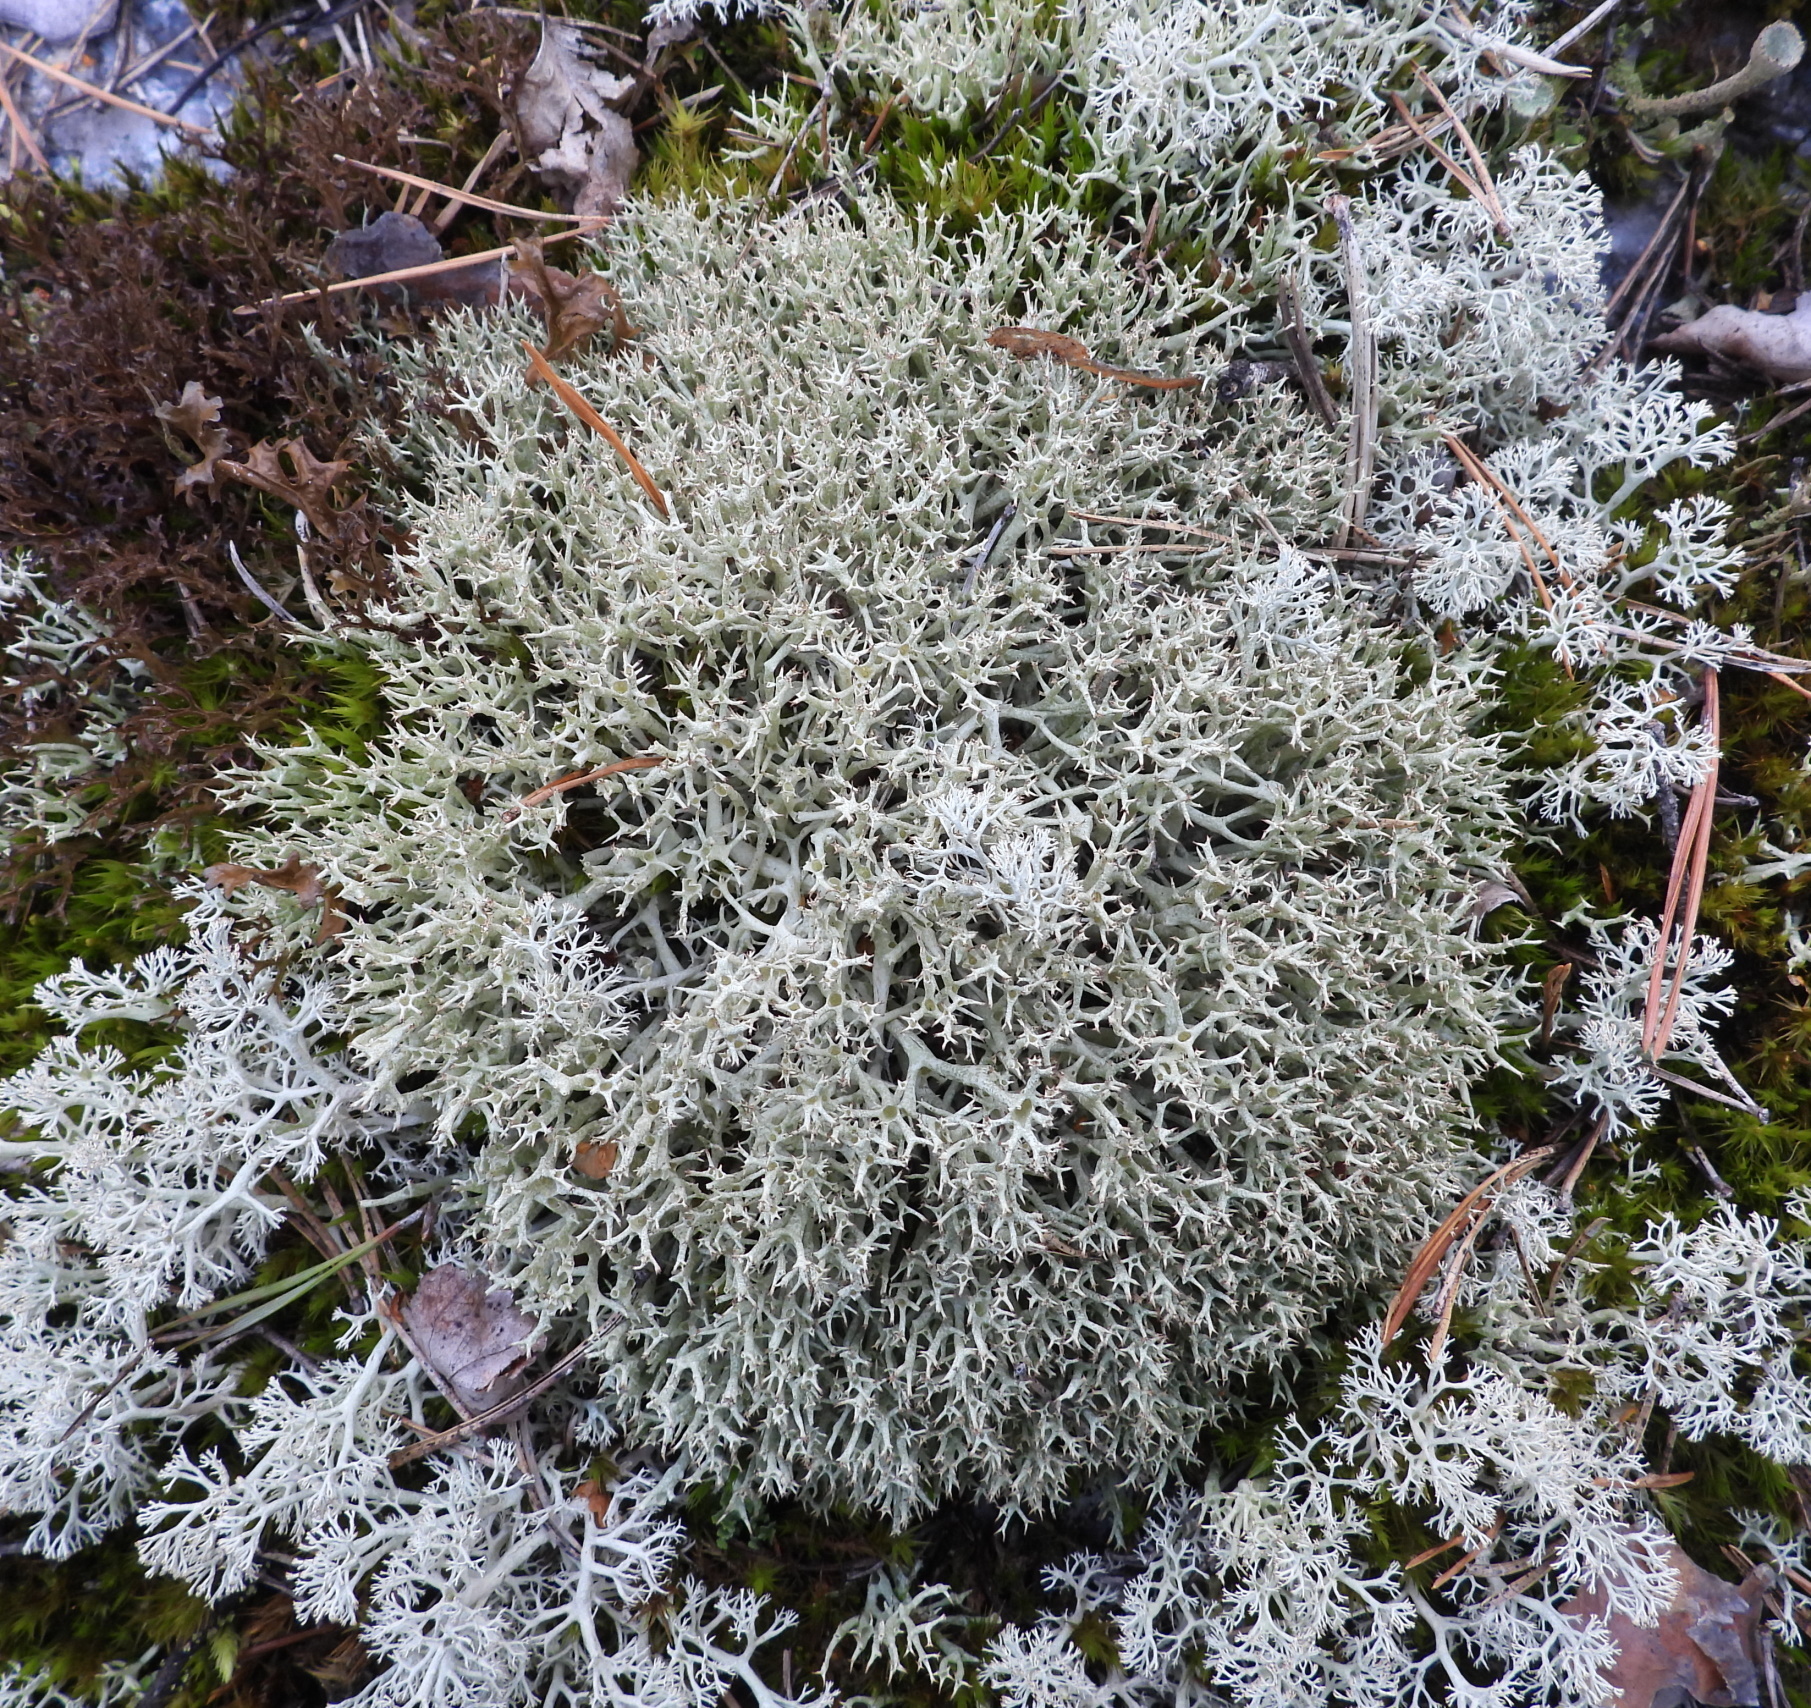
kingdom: Fungi
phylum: Ascomycota
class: Lecanoromycetes
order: Lecanorales
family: Cladoniaceae
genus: Cladonia
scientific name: Cladonia uncialis
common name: Thorn lichen
